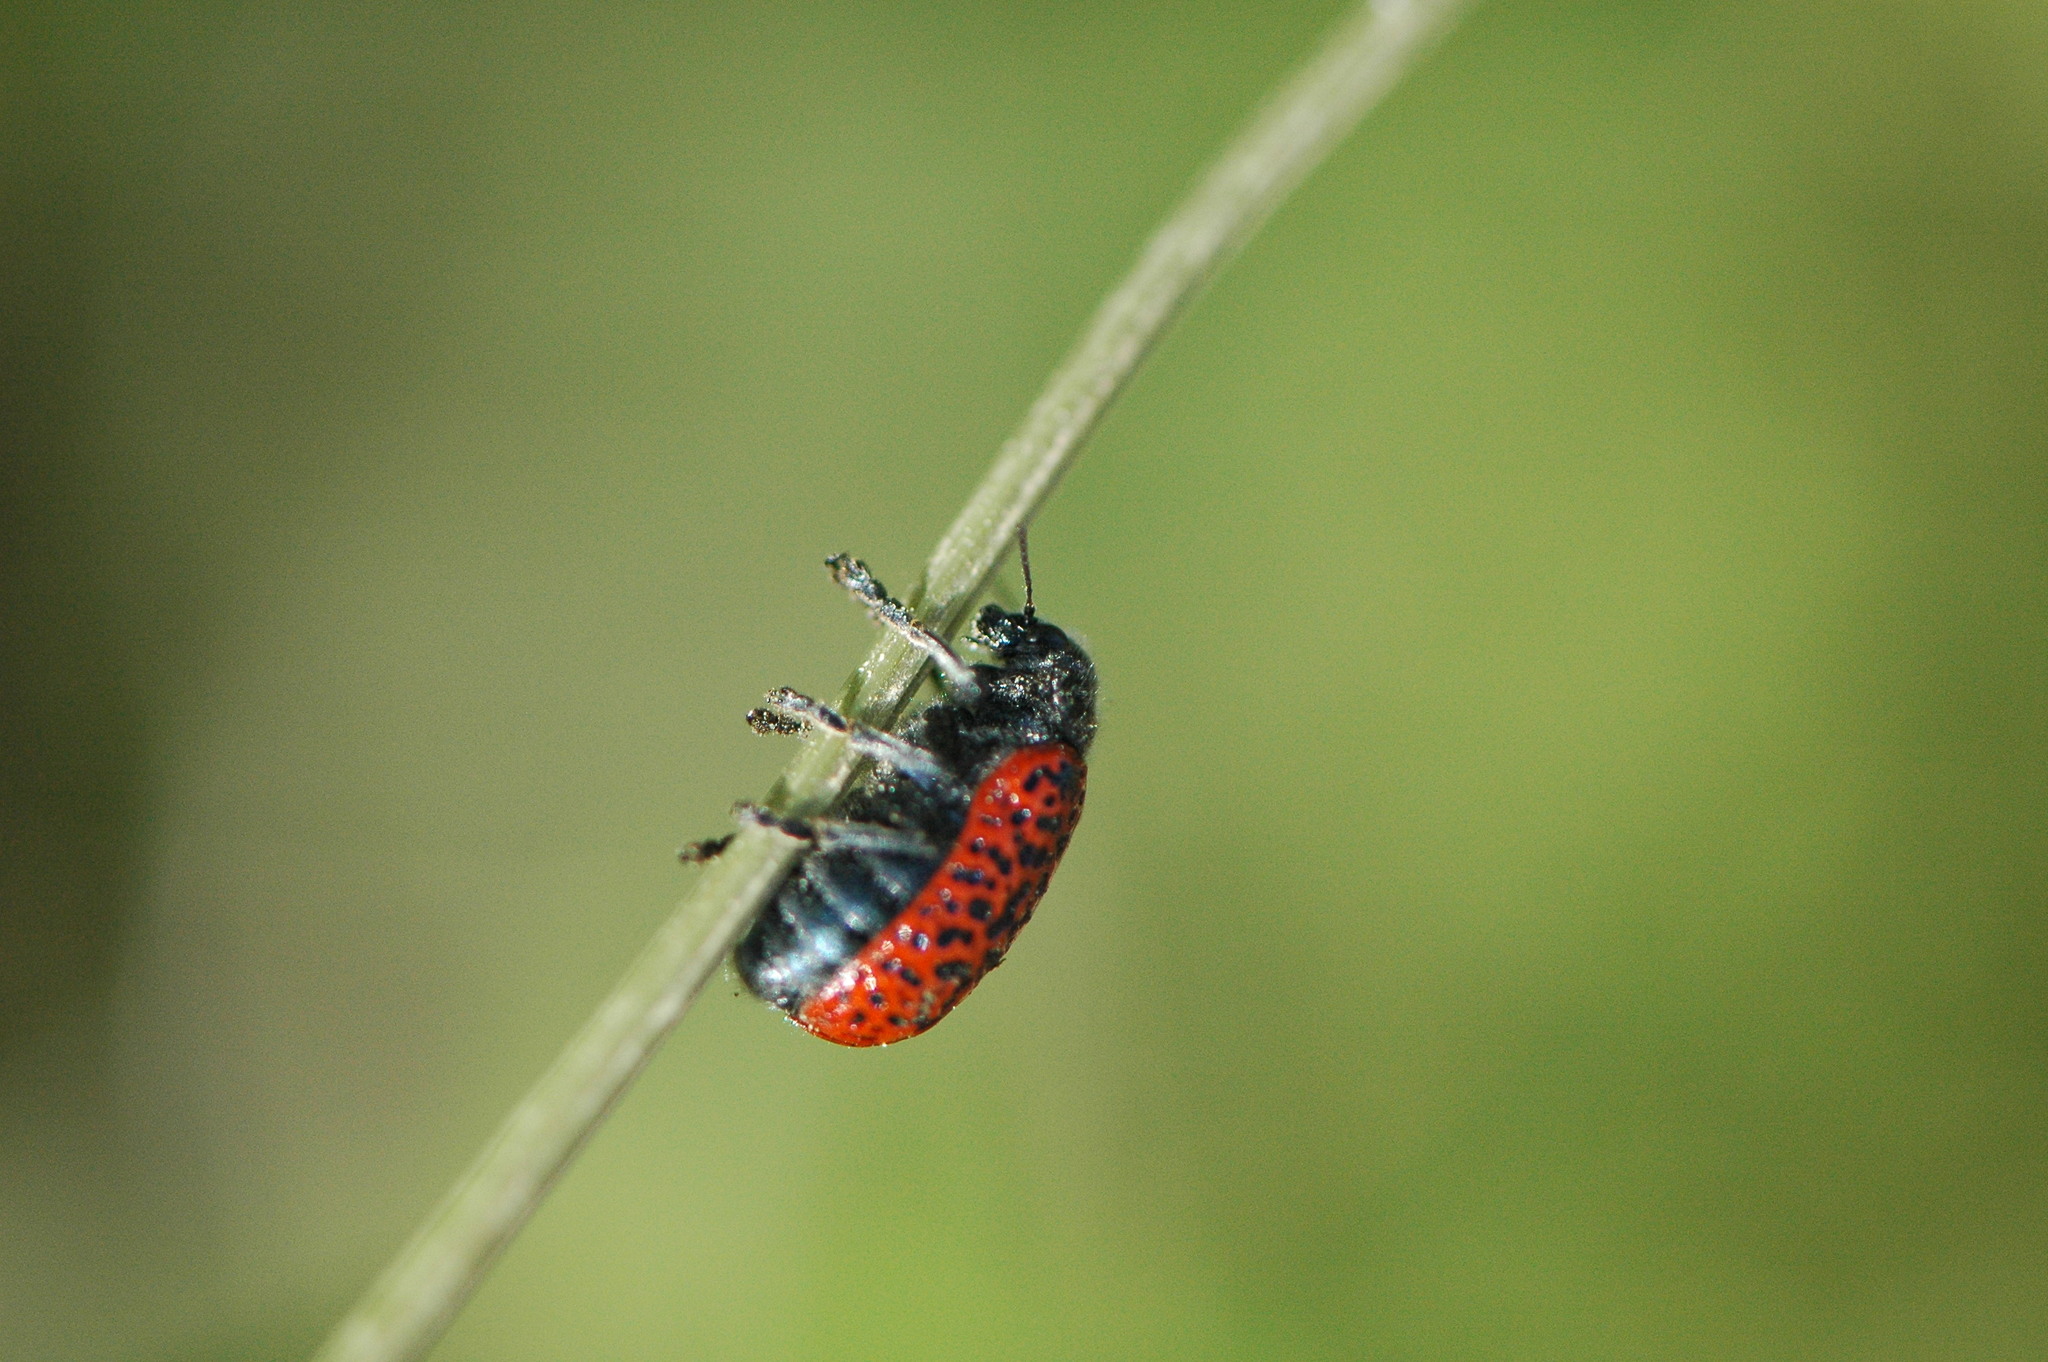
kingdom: Animalia
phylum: Arthropoda
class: Insecta
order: Coleoptera
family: Chrysomelidae
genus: Lachnaia
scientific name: Lachnaia variolosa
